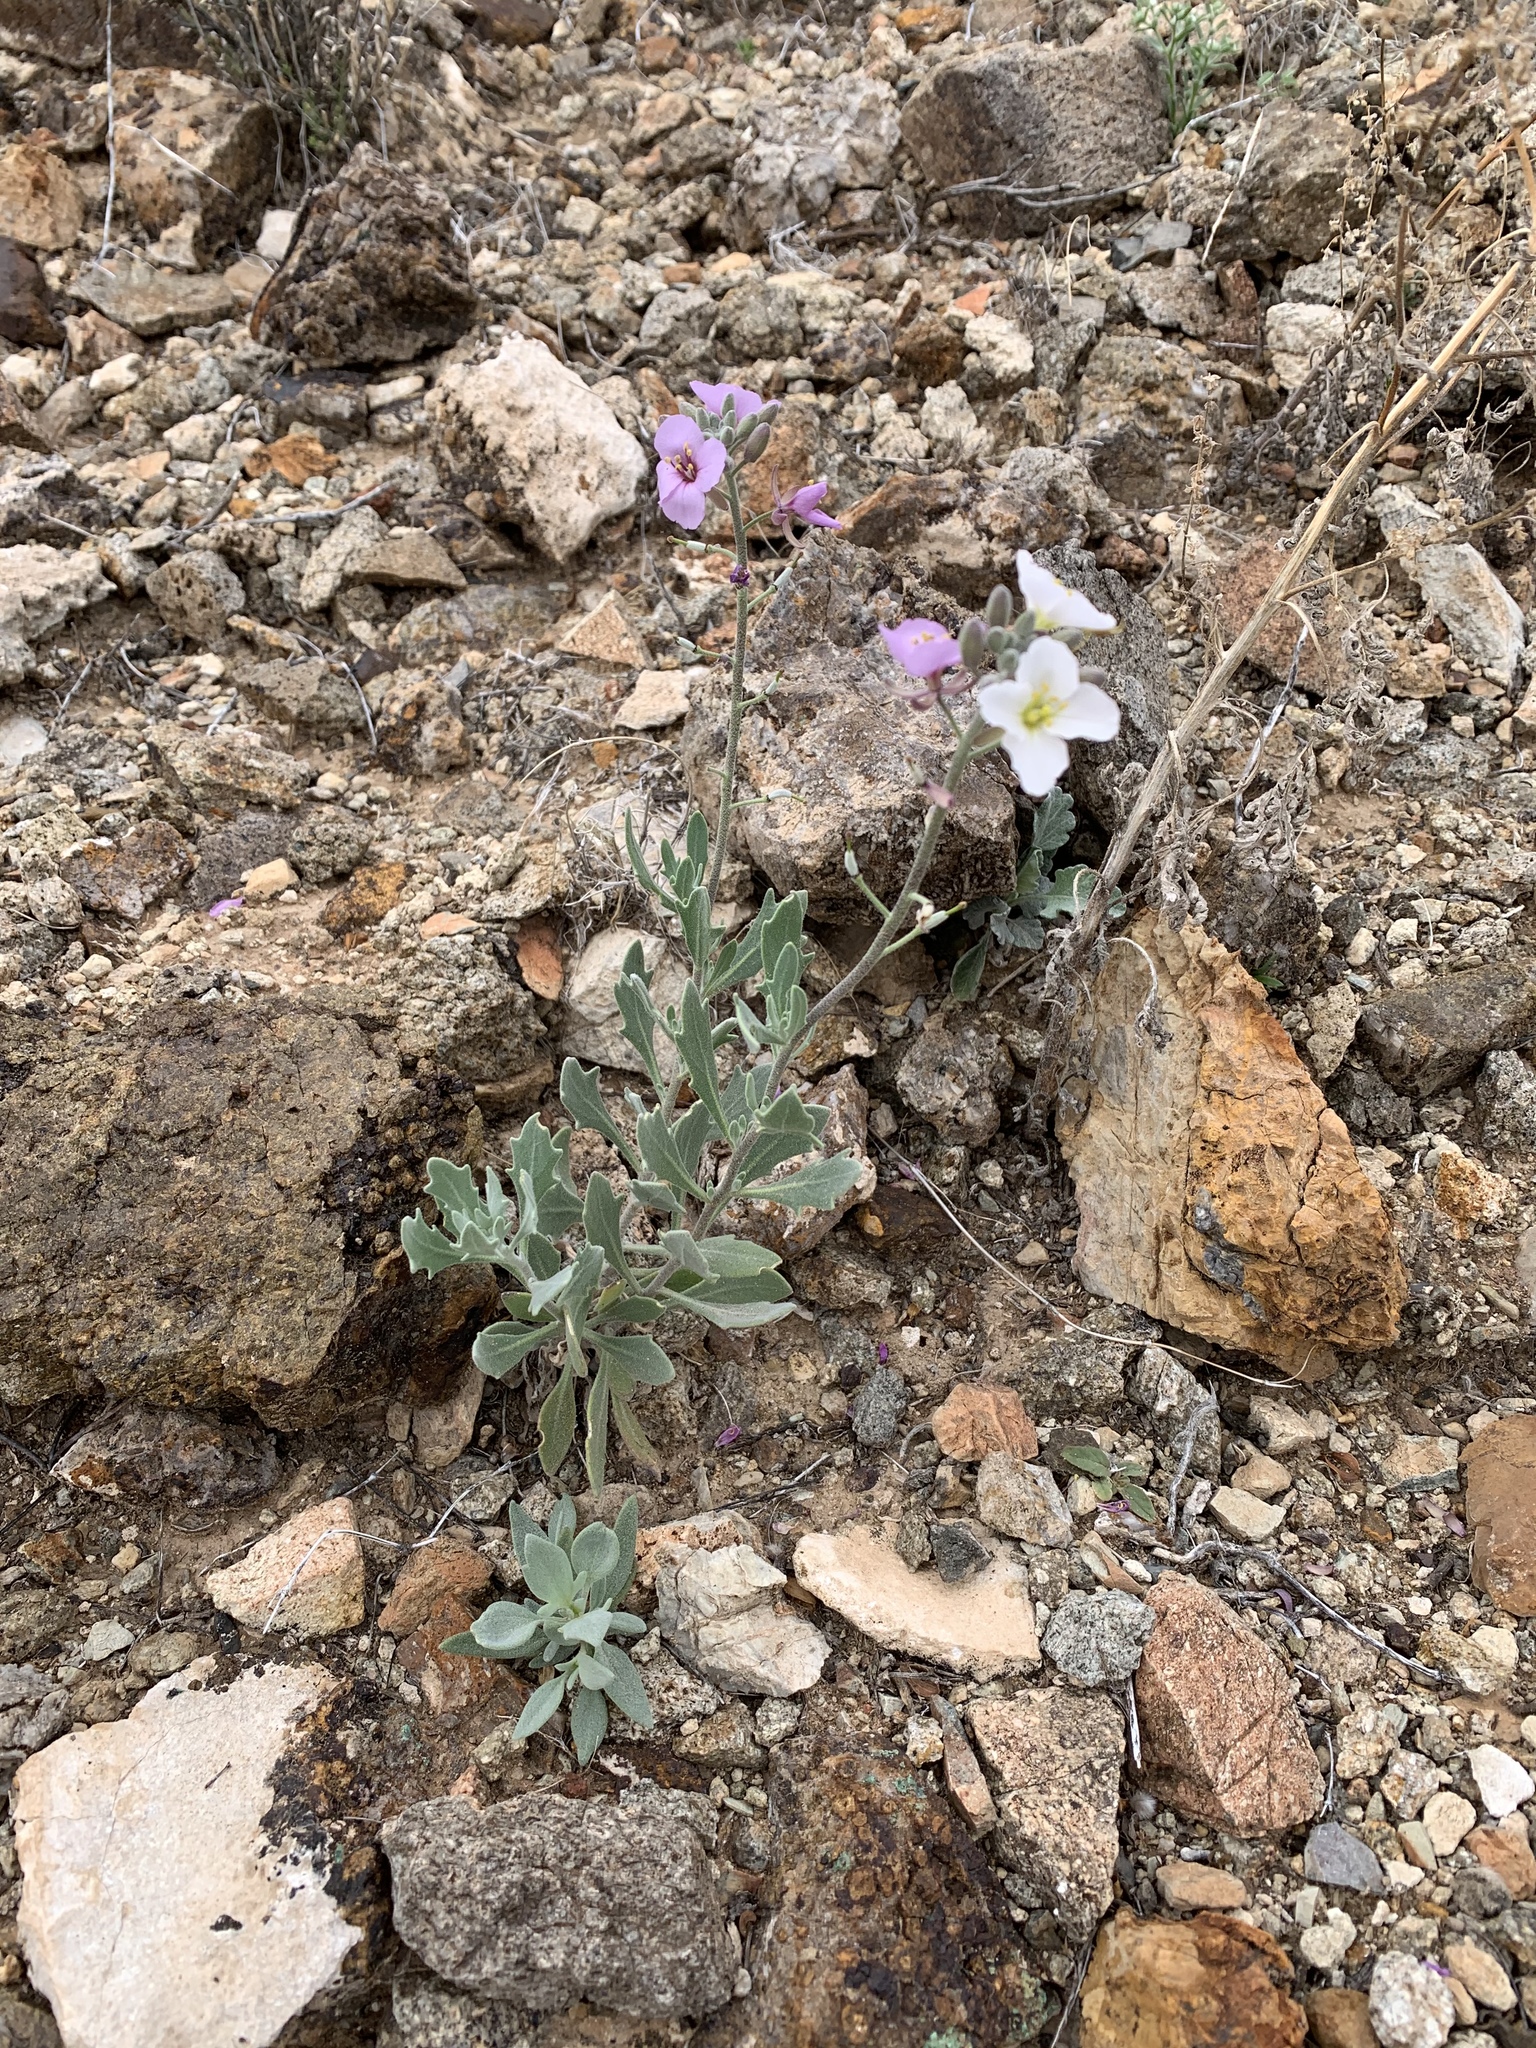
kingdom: Plantae
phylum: Tracheophyta
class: Magnoliopsida
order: Brassicales
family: Brassicaceae
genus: Nerisyrenia
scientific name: Nerisyrenia camporum
